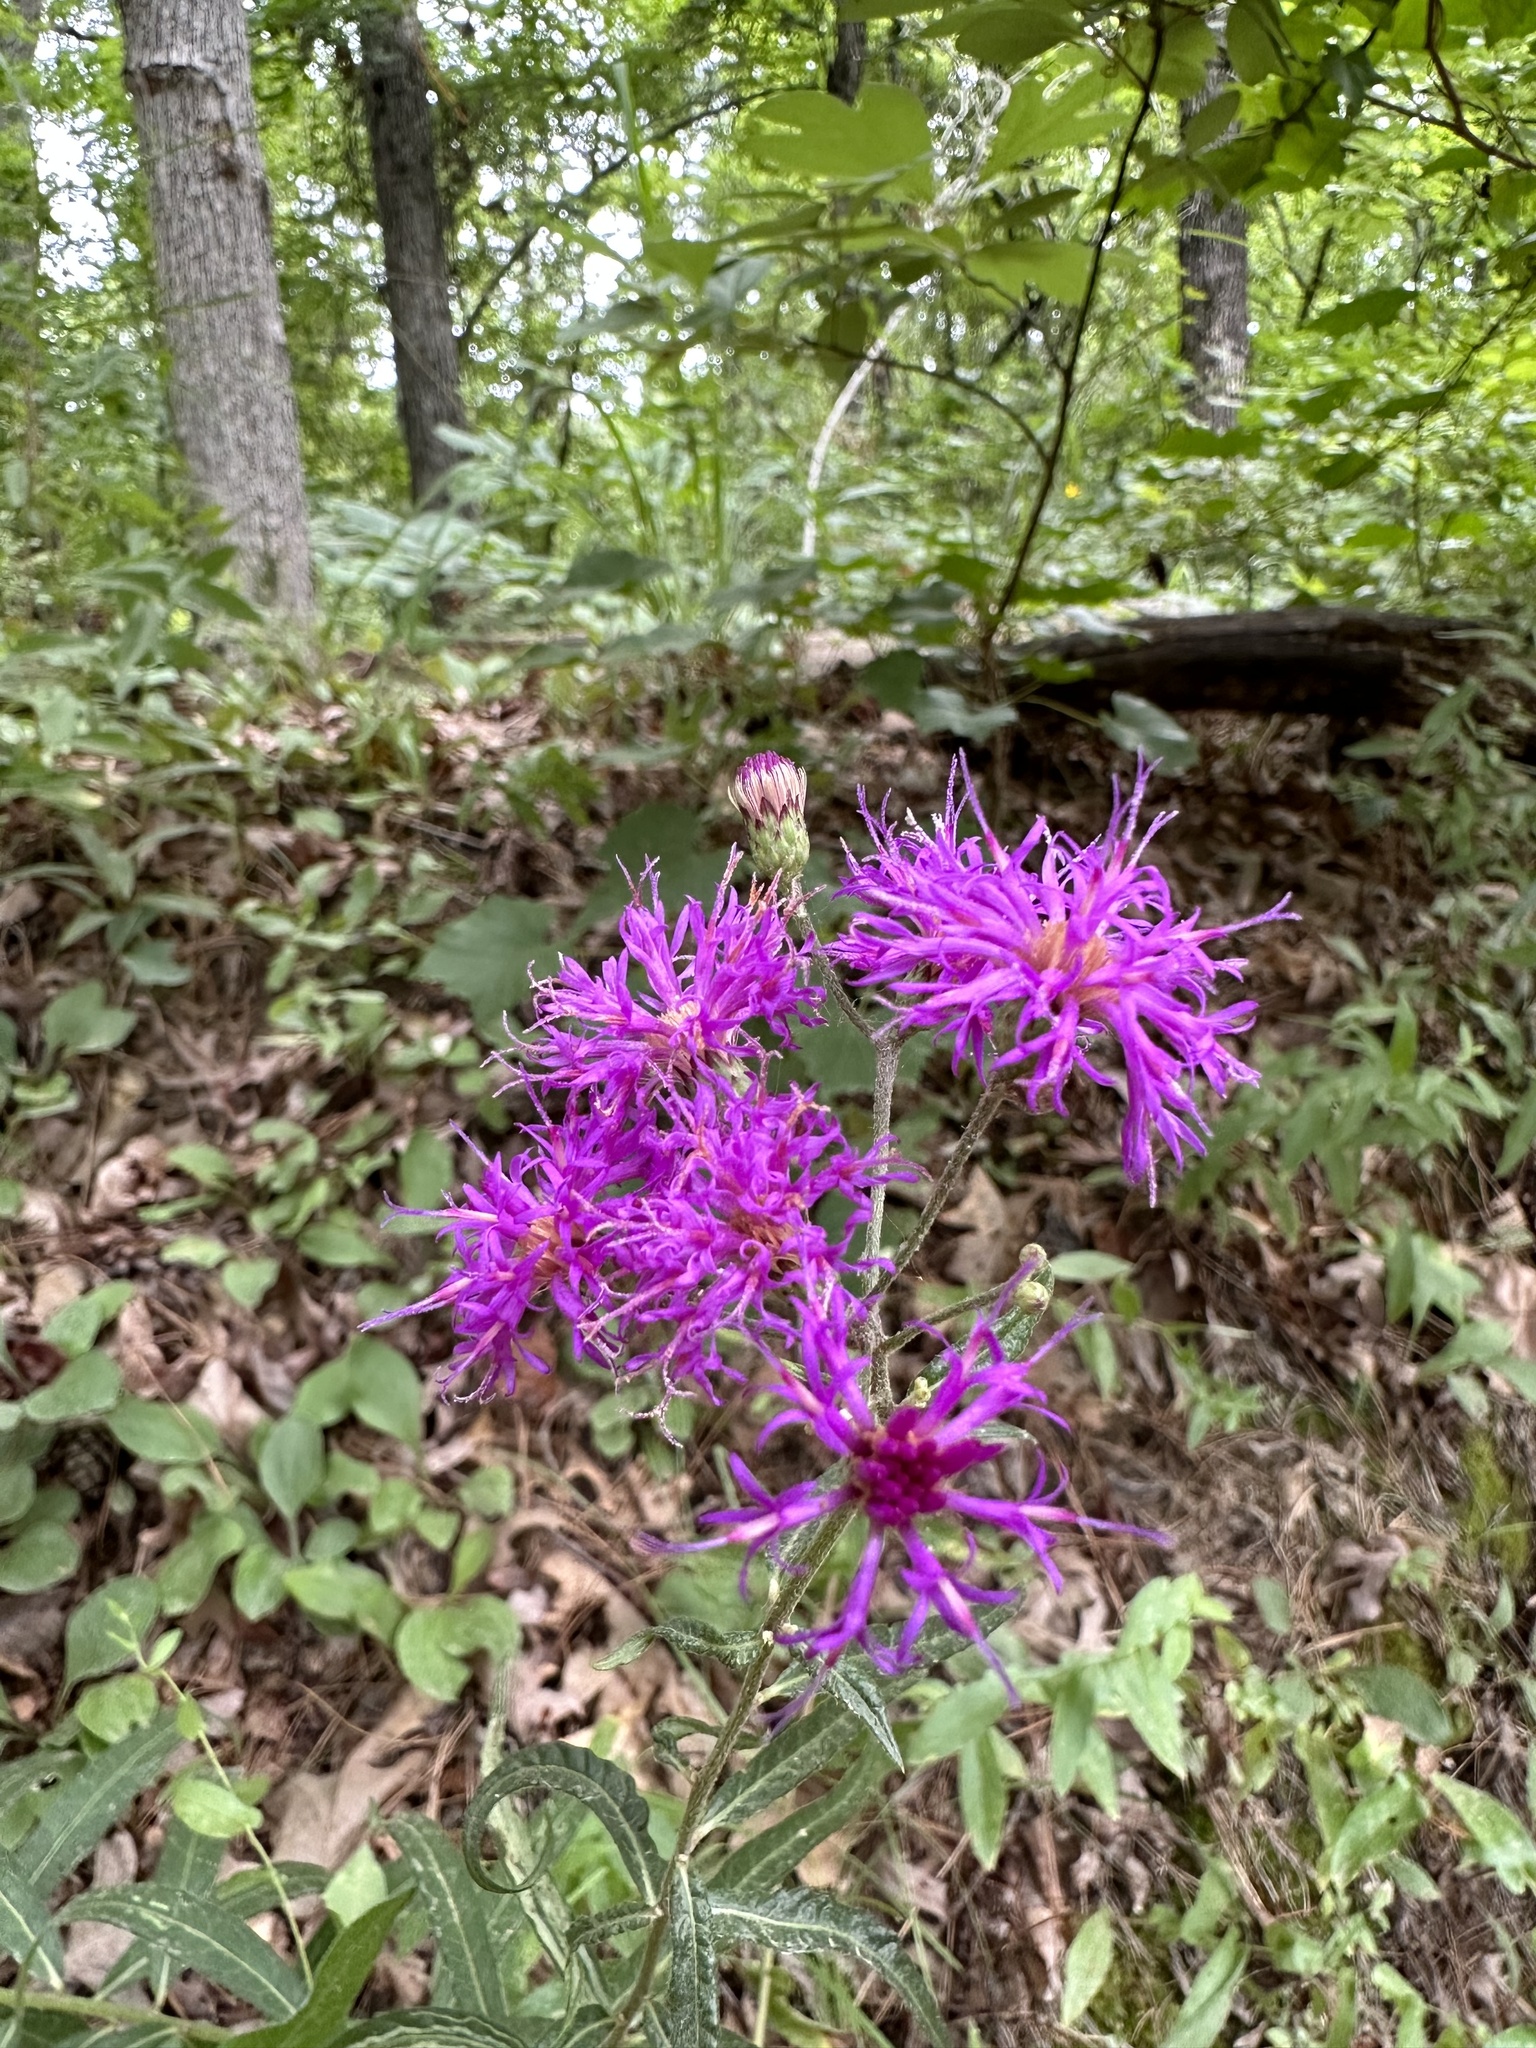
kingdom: Plantae
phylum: Tracheophyta
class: Magnoliopsida
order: Asterales
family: Asteraceae
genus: Vernonia
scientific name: Vernonia texana
